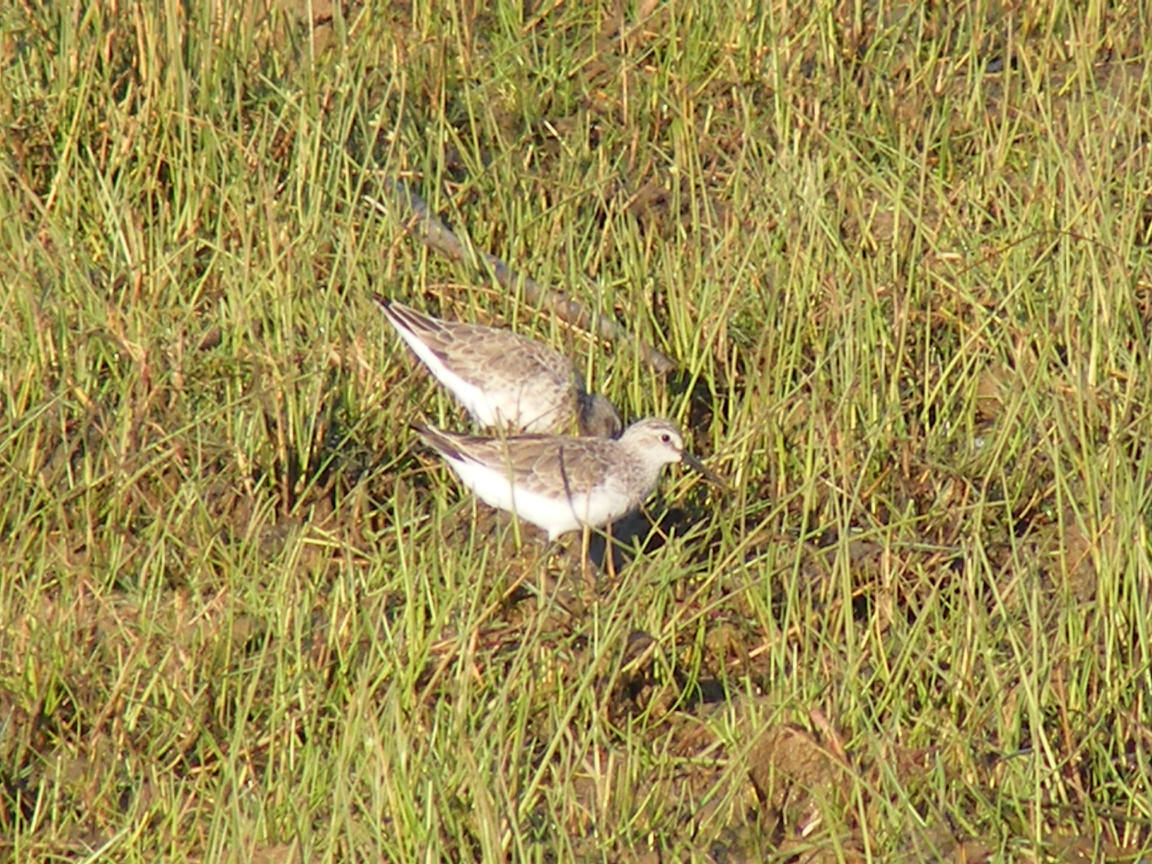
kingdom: Animalia
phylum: Chordata
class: Aves
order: Charadriiformes
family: Scolopacidae
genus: Calidris
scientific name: Calidris pugnax
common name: Ruff
